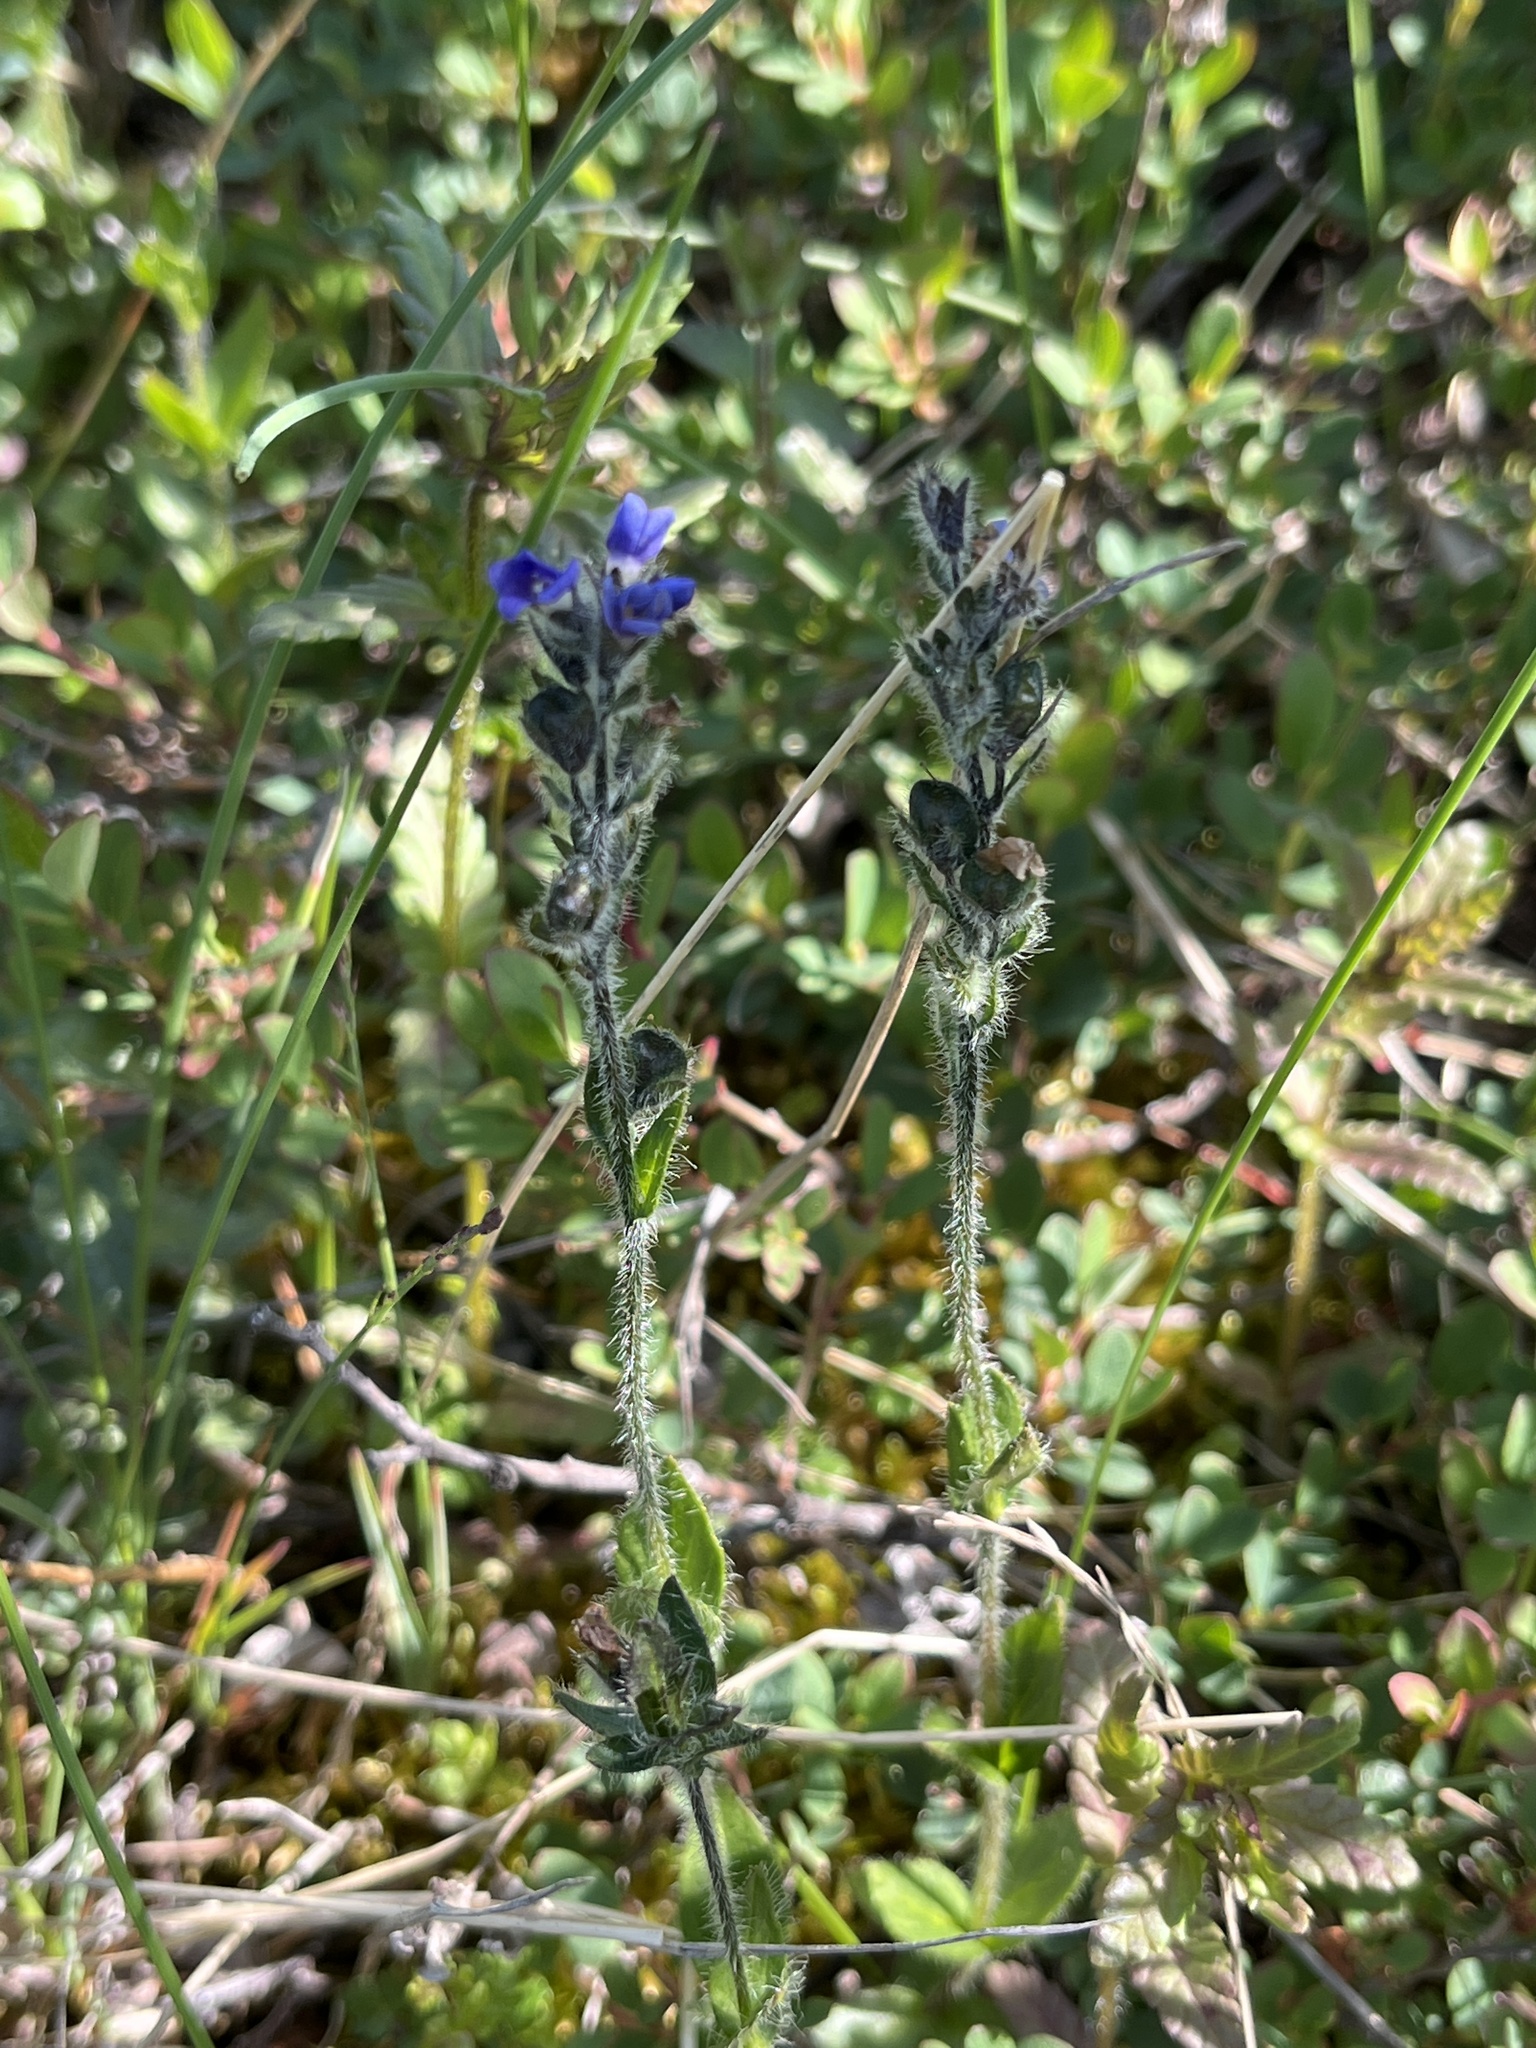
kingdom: Plantae
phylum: Tracheophyta
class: Magnoliopsida
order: Lamiales
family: Plantaginaceae
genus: Veronica
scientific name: Veronica wormskjoldii
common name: American alpine speedwell
